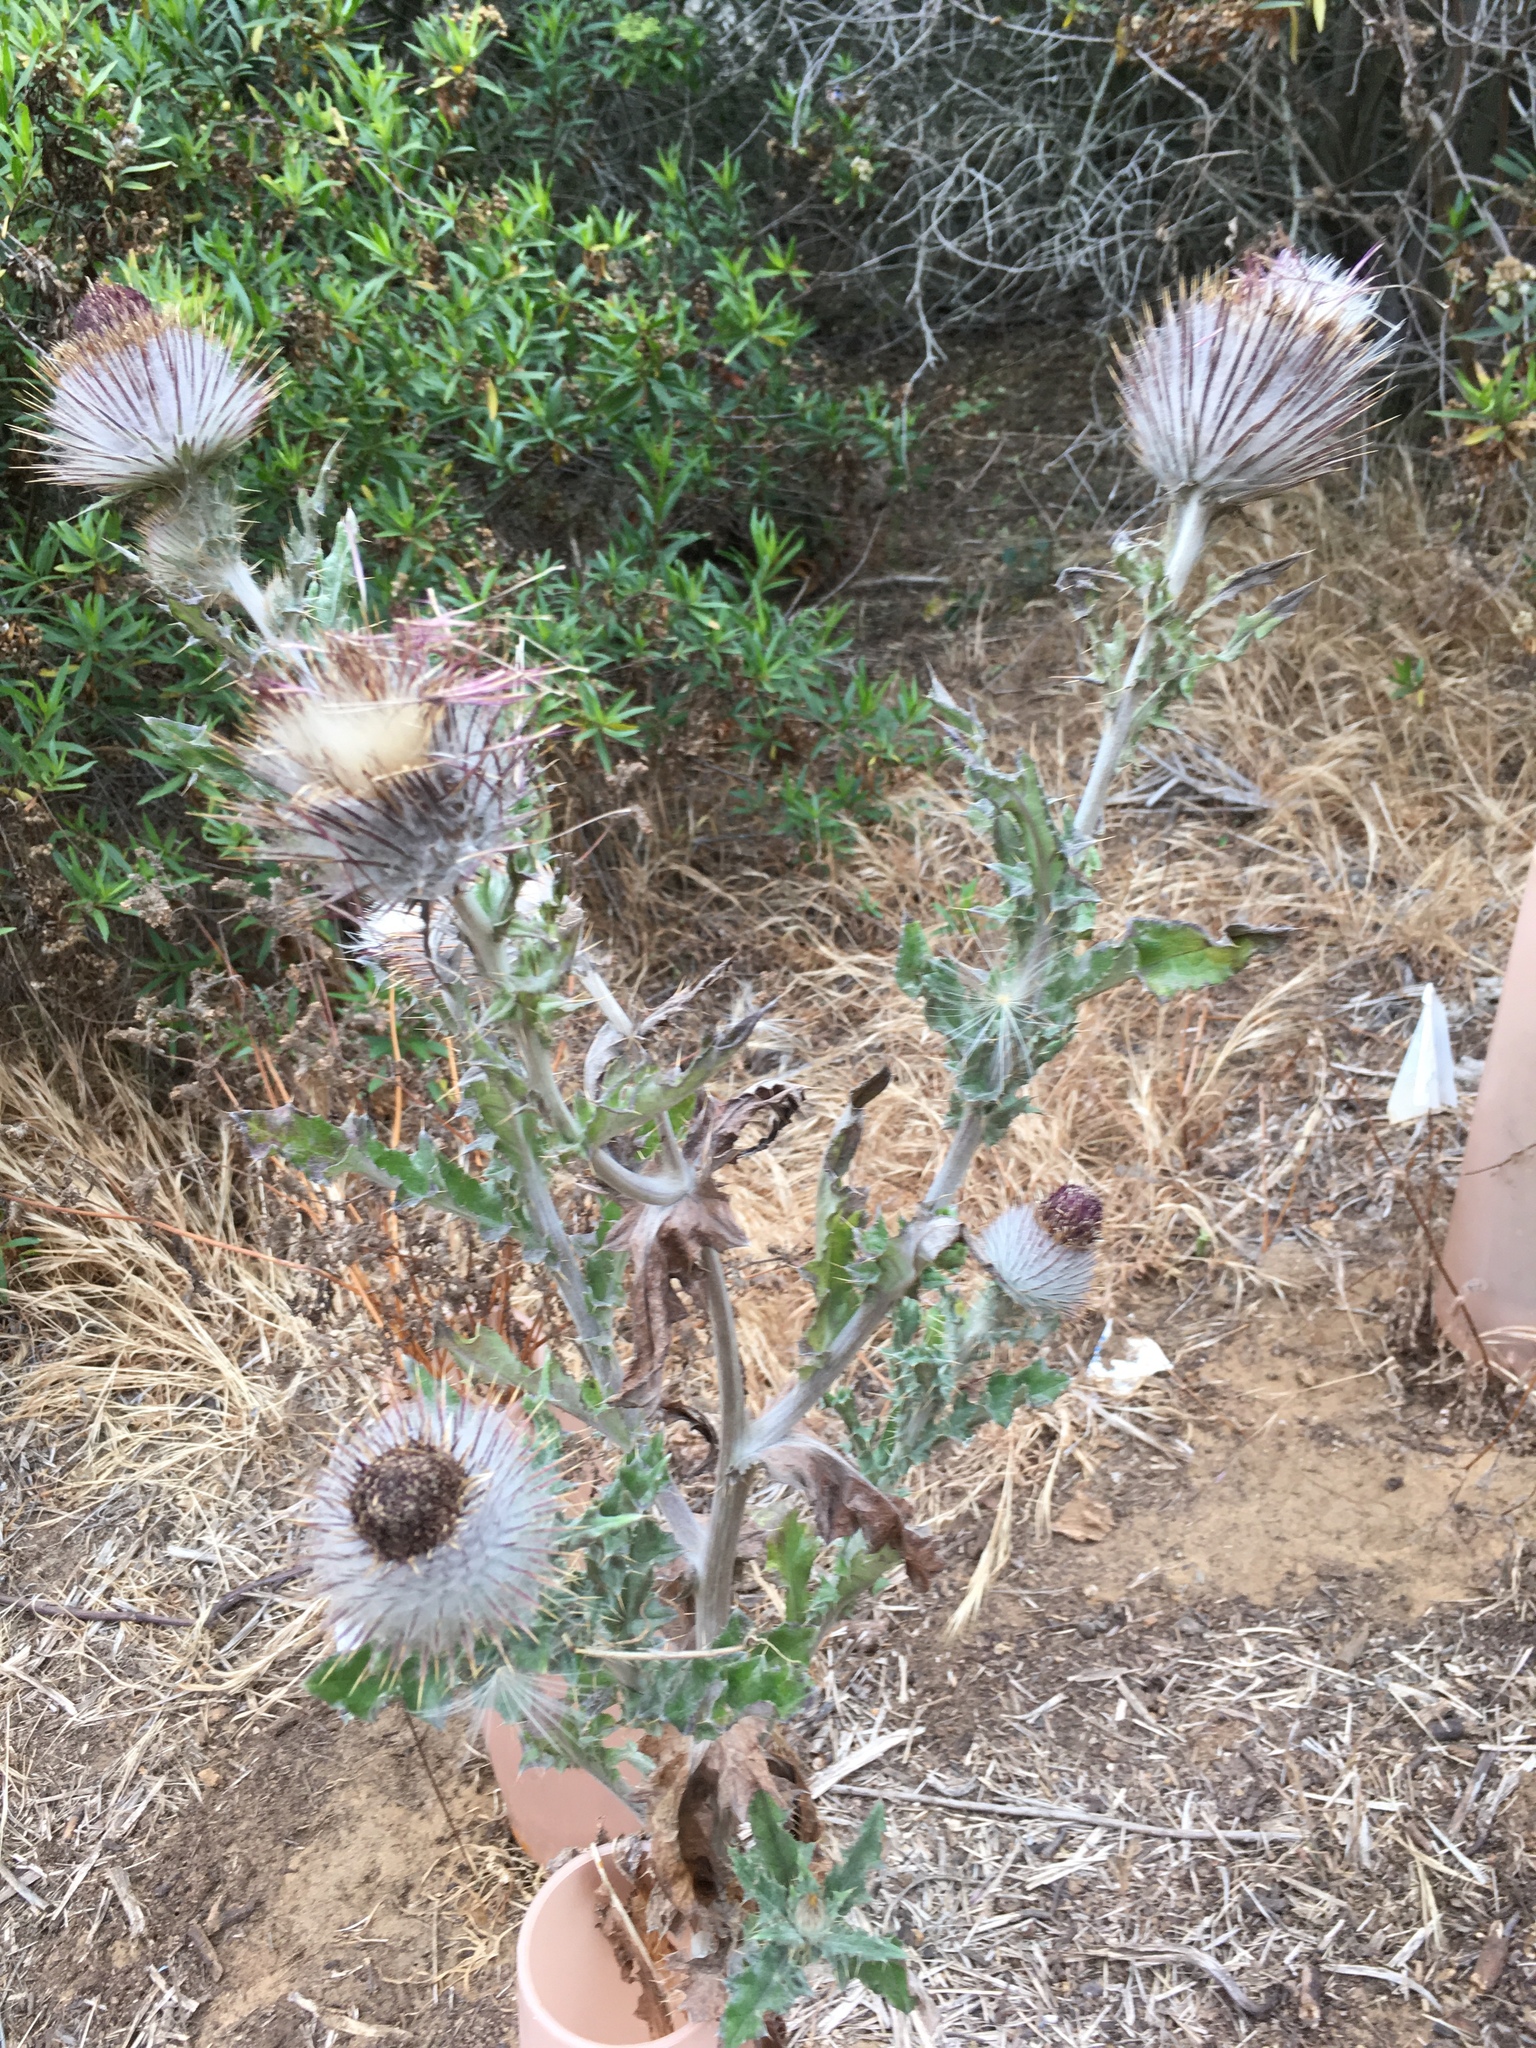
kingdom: Plantae
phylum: Tracheophyta
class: Magnoliopsida
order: Asterales
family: Asteraceae
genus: Cirsium
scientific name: Cirsium occidentale
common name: Western thistle
